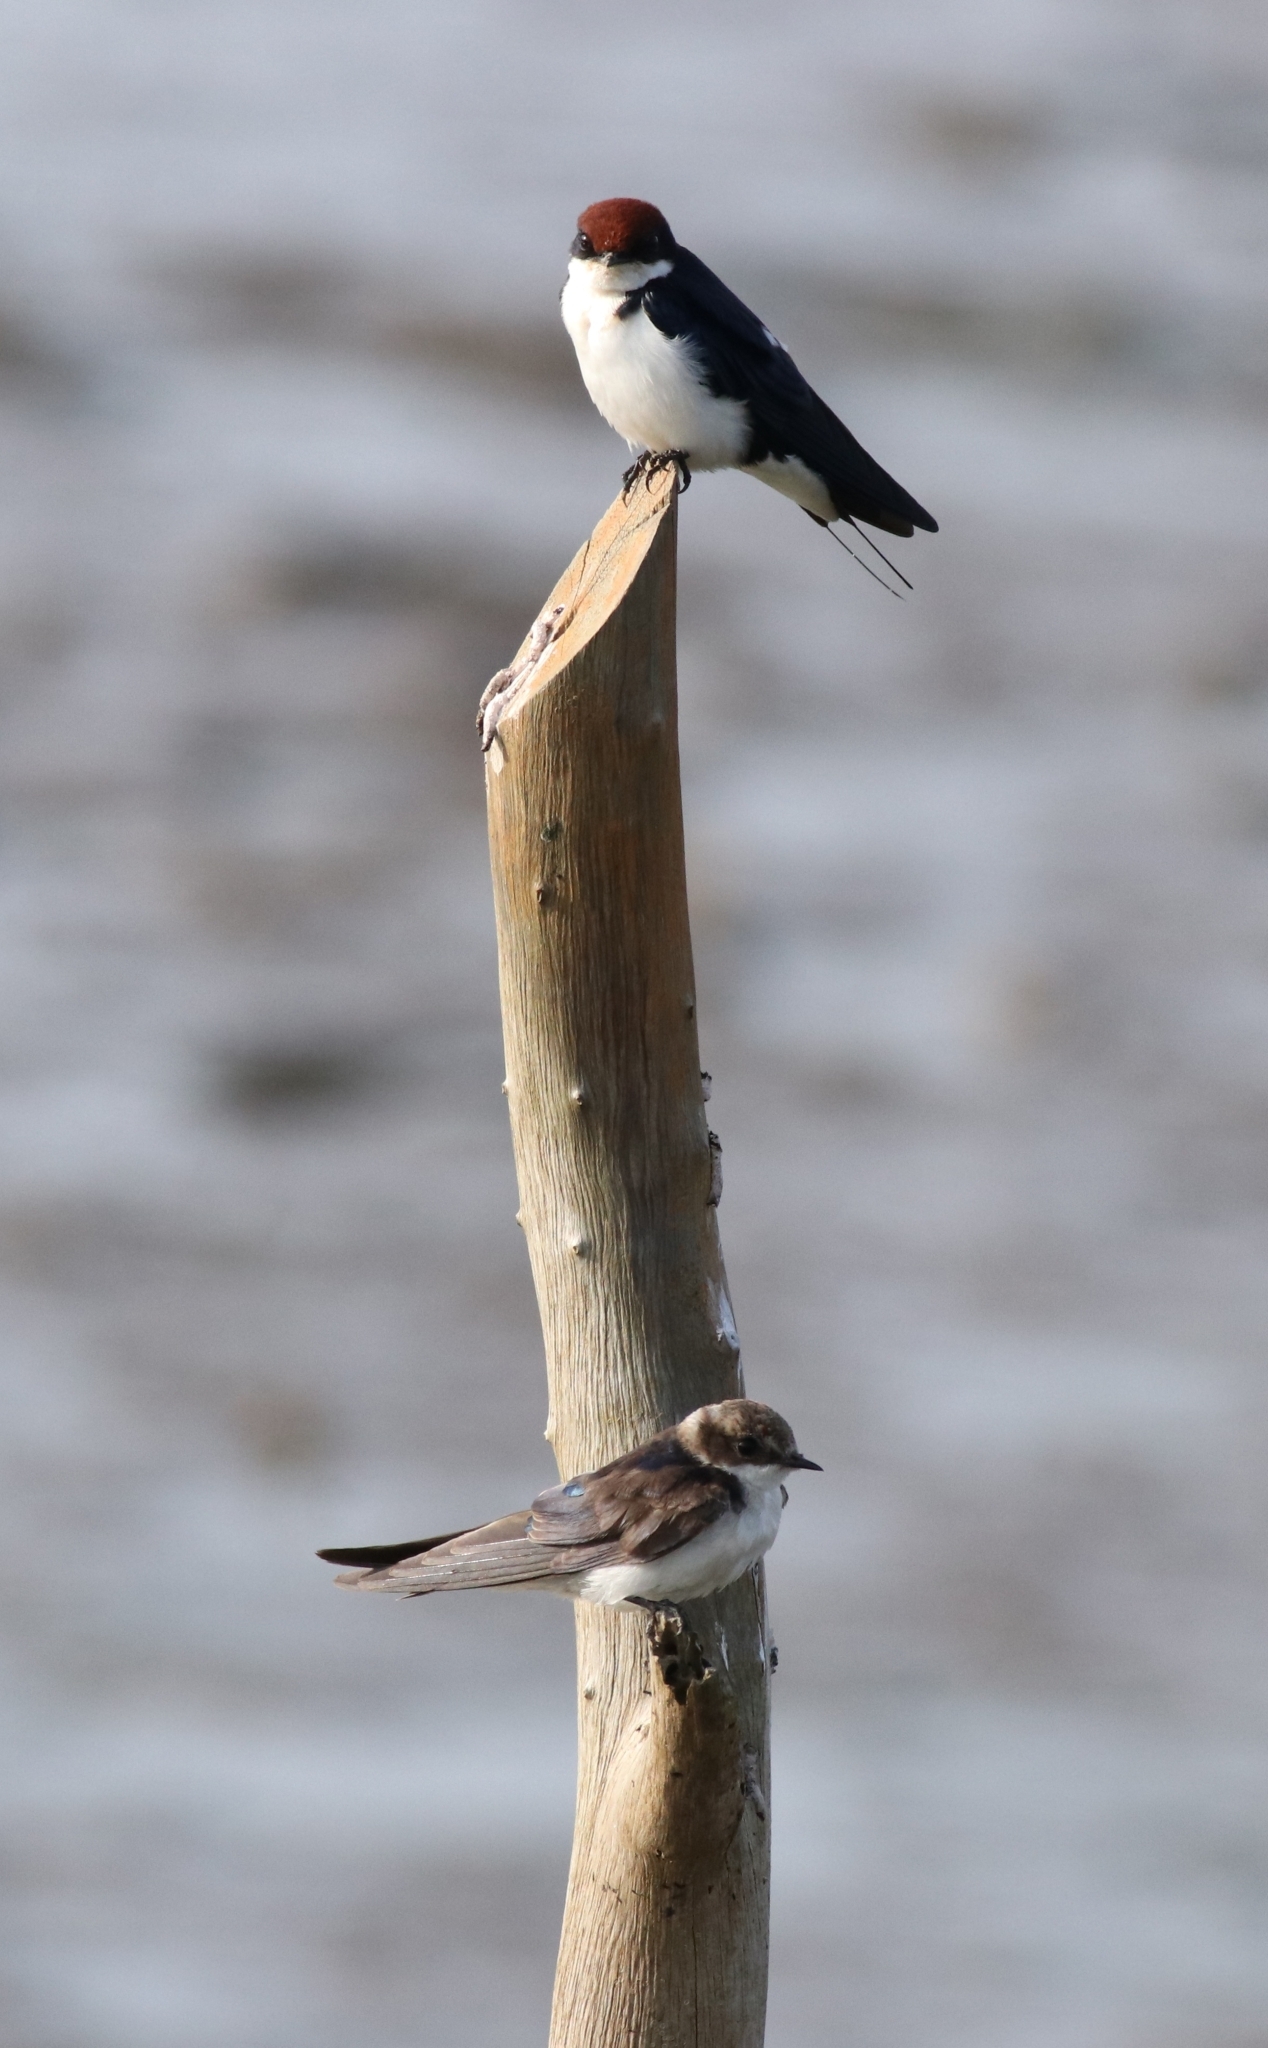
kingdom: Animalia
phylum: Chordata
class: Aves
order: Passeriformes
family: Hirundinidae
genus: Hirundo
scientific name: Hirundo smithii
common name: Wire-tailed swallow
